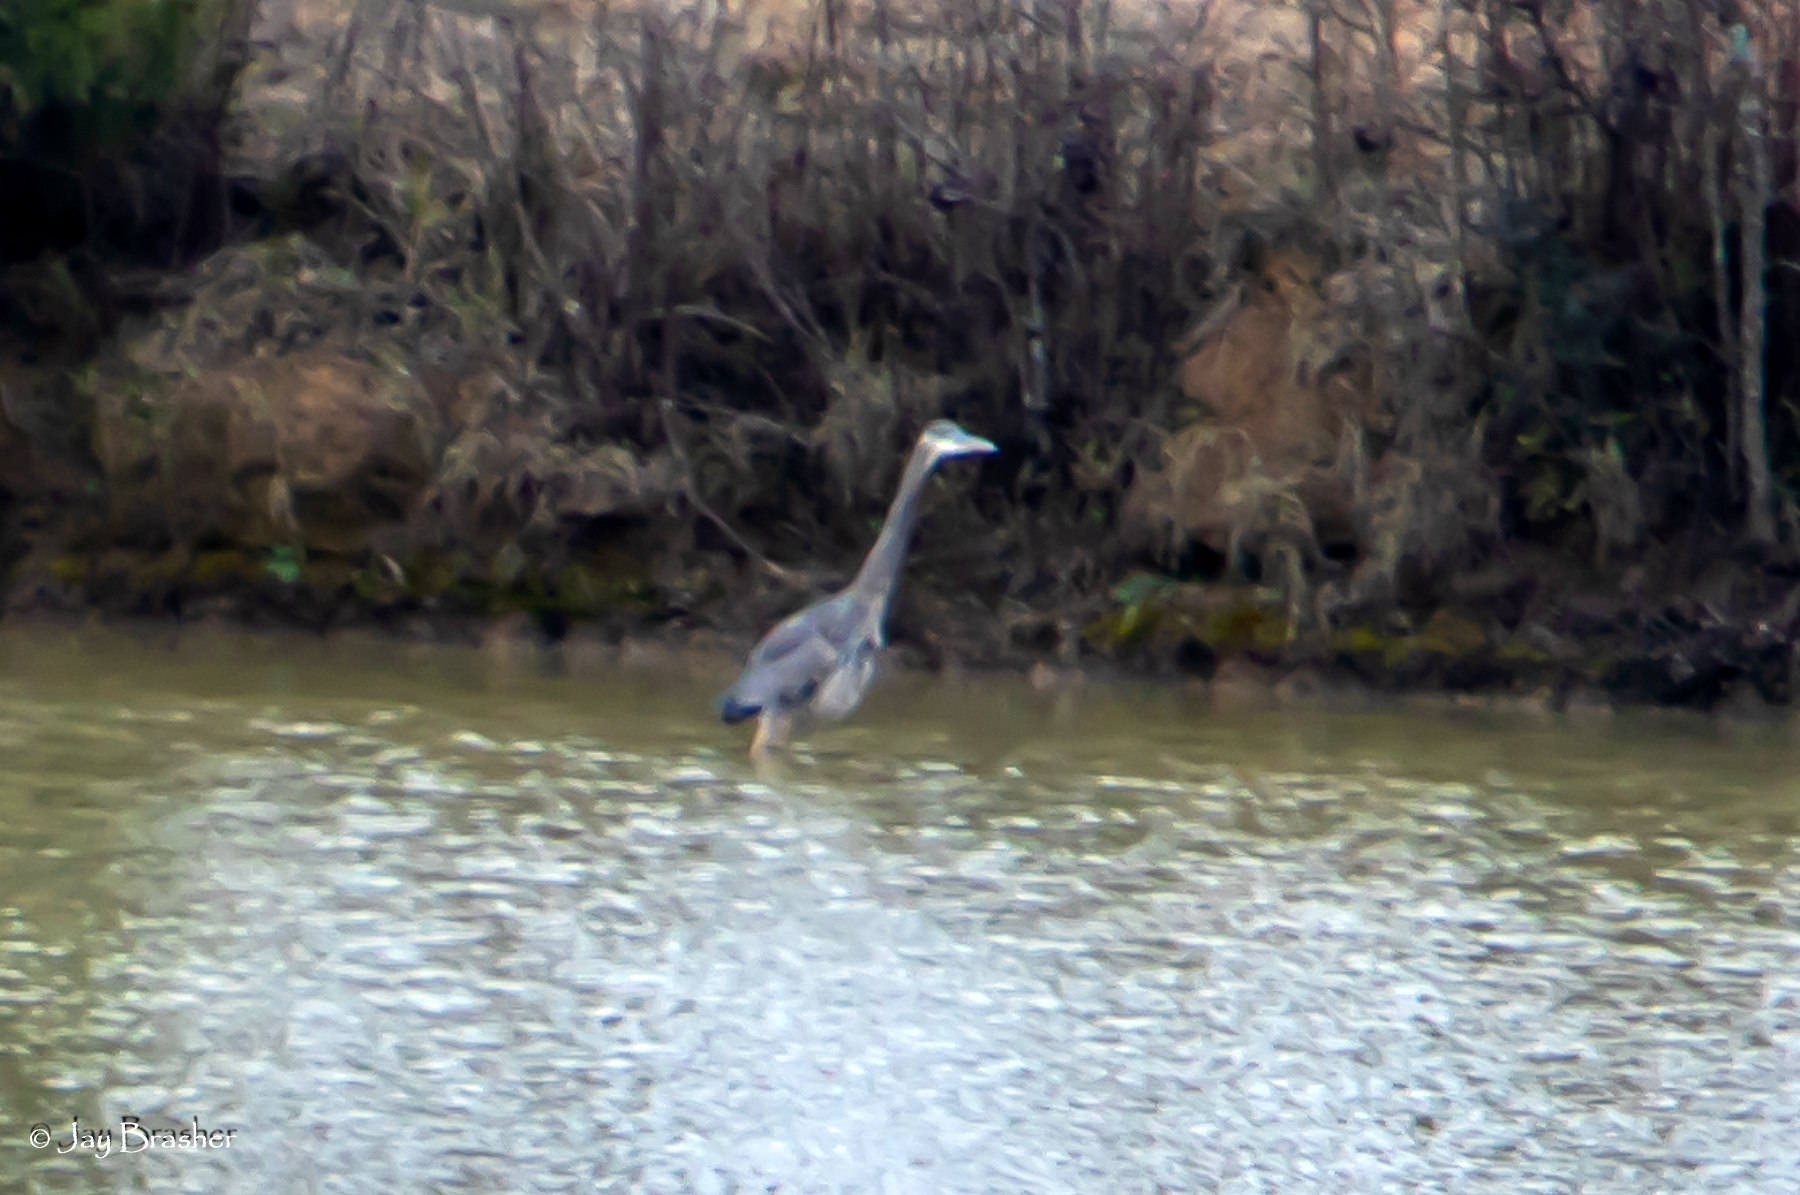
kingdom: Animalia
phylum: Chordata
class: Aves
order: Pelecaniformes
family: Ardeidae
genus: Ardea
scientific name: Ardea herodias
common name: Great blue heron
